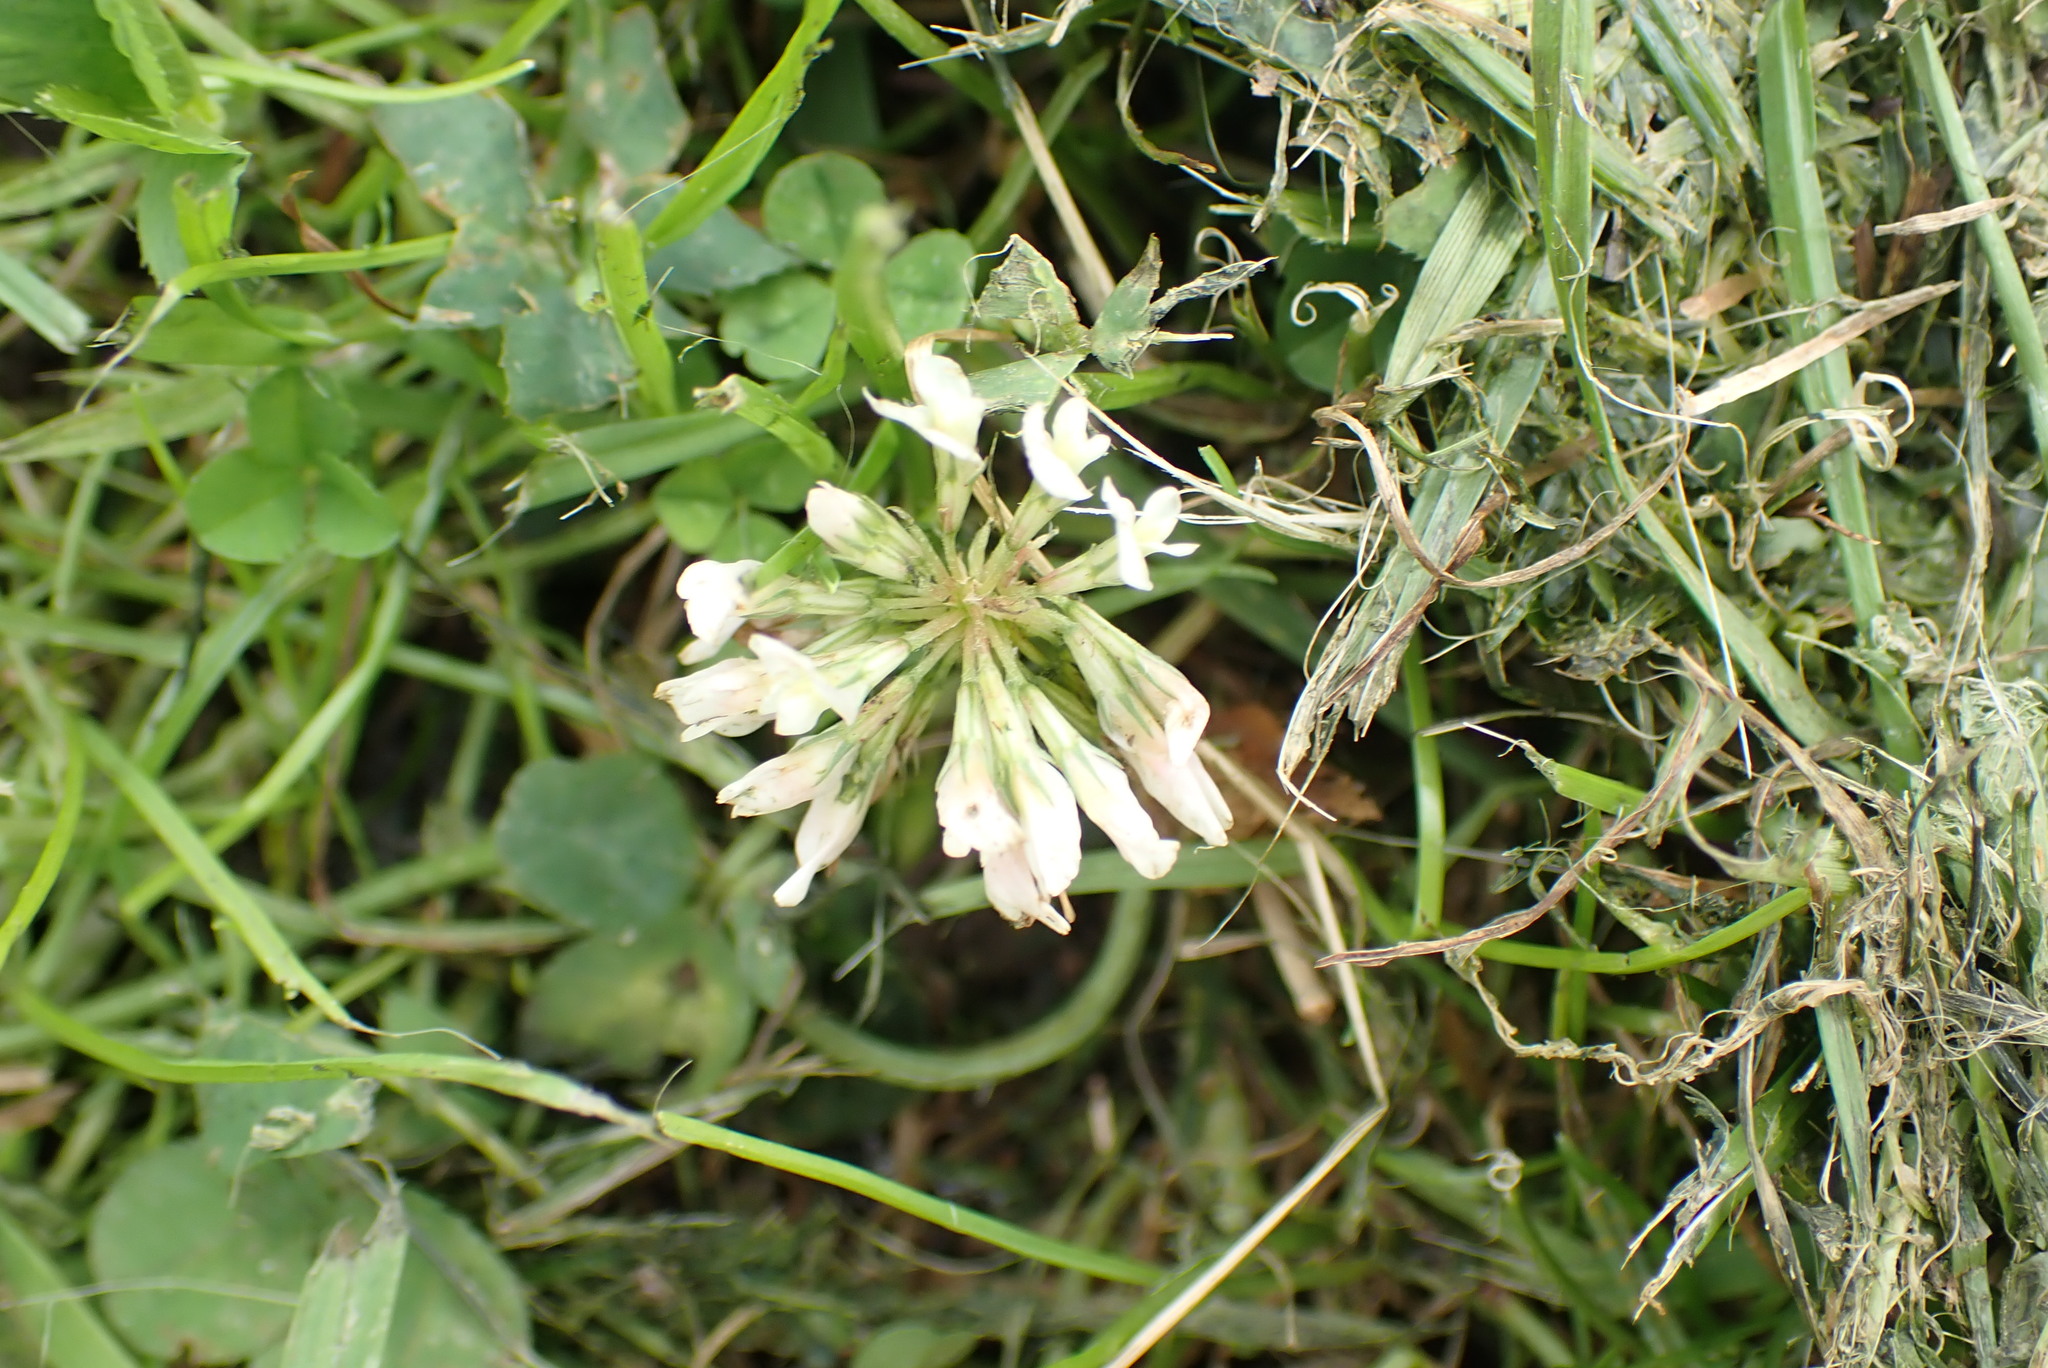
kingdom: Plantae
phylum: Tracheophyta
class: Magnoliopsida
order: Fabales
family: Fabaceae
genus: Trifolium
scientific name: Trifolium repens
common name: White clover
